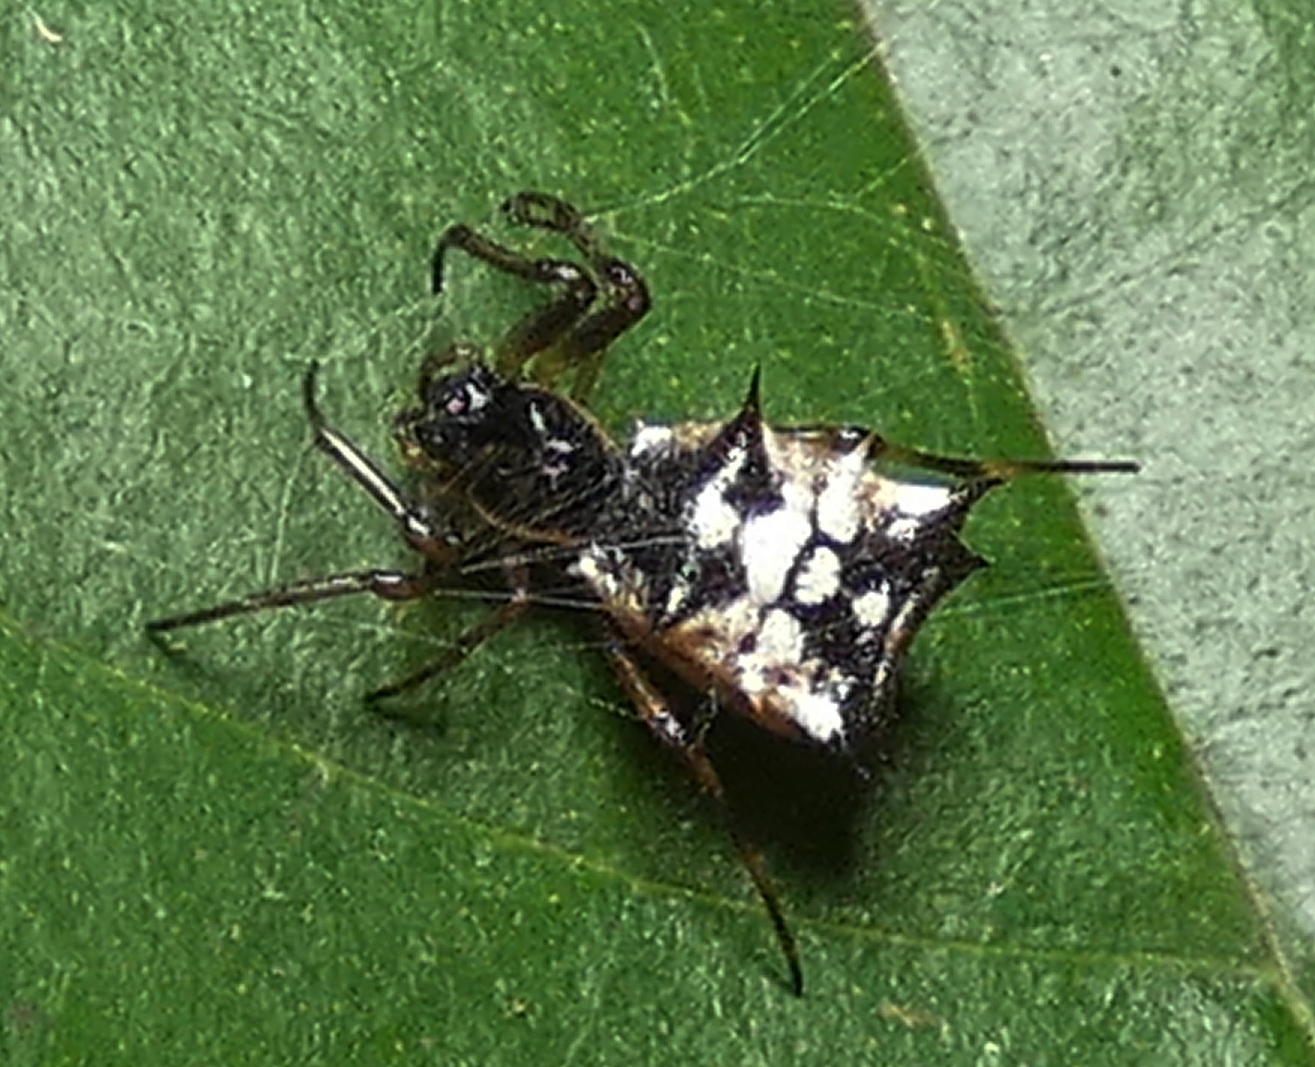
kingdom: Animalia
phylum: Arthropoda
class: Arachnida
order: Araneae
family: Araneidae
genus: Micrathena
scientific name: Micrathena picta
